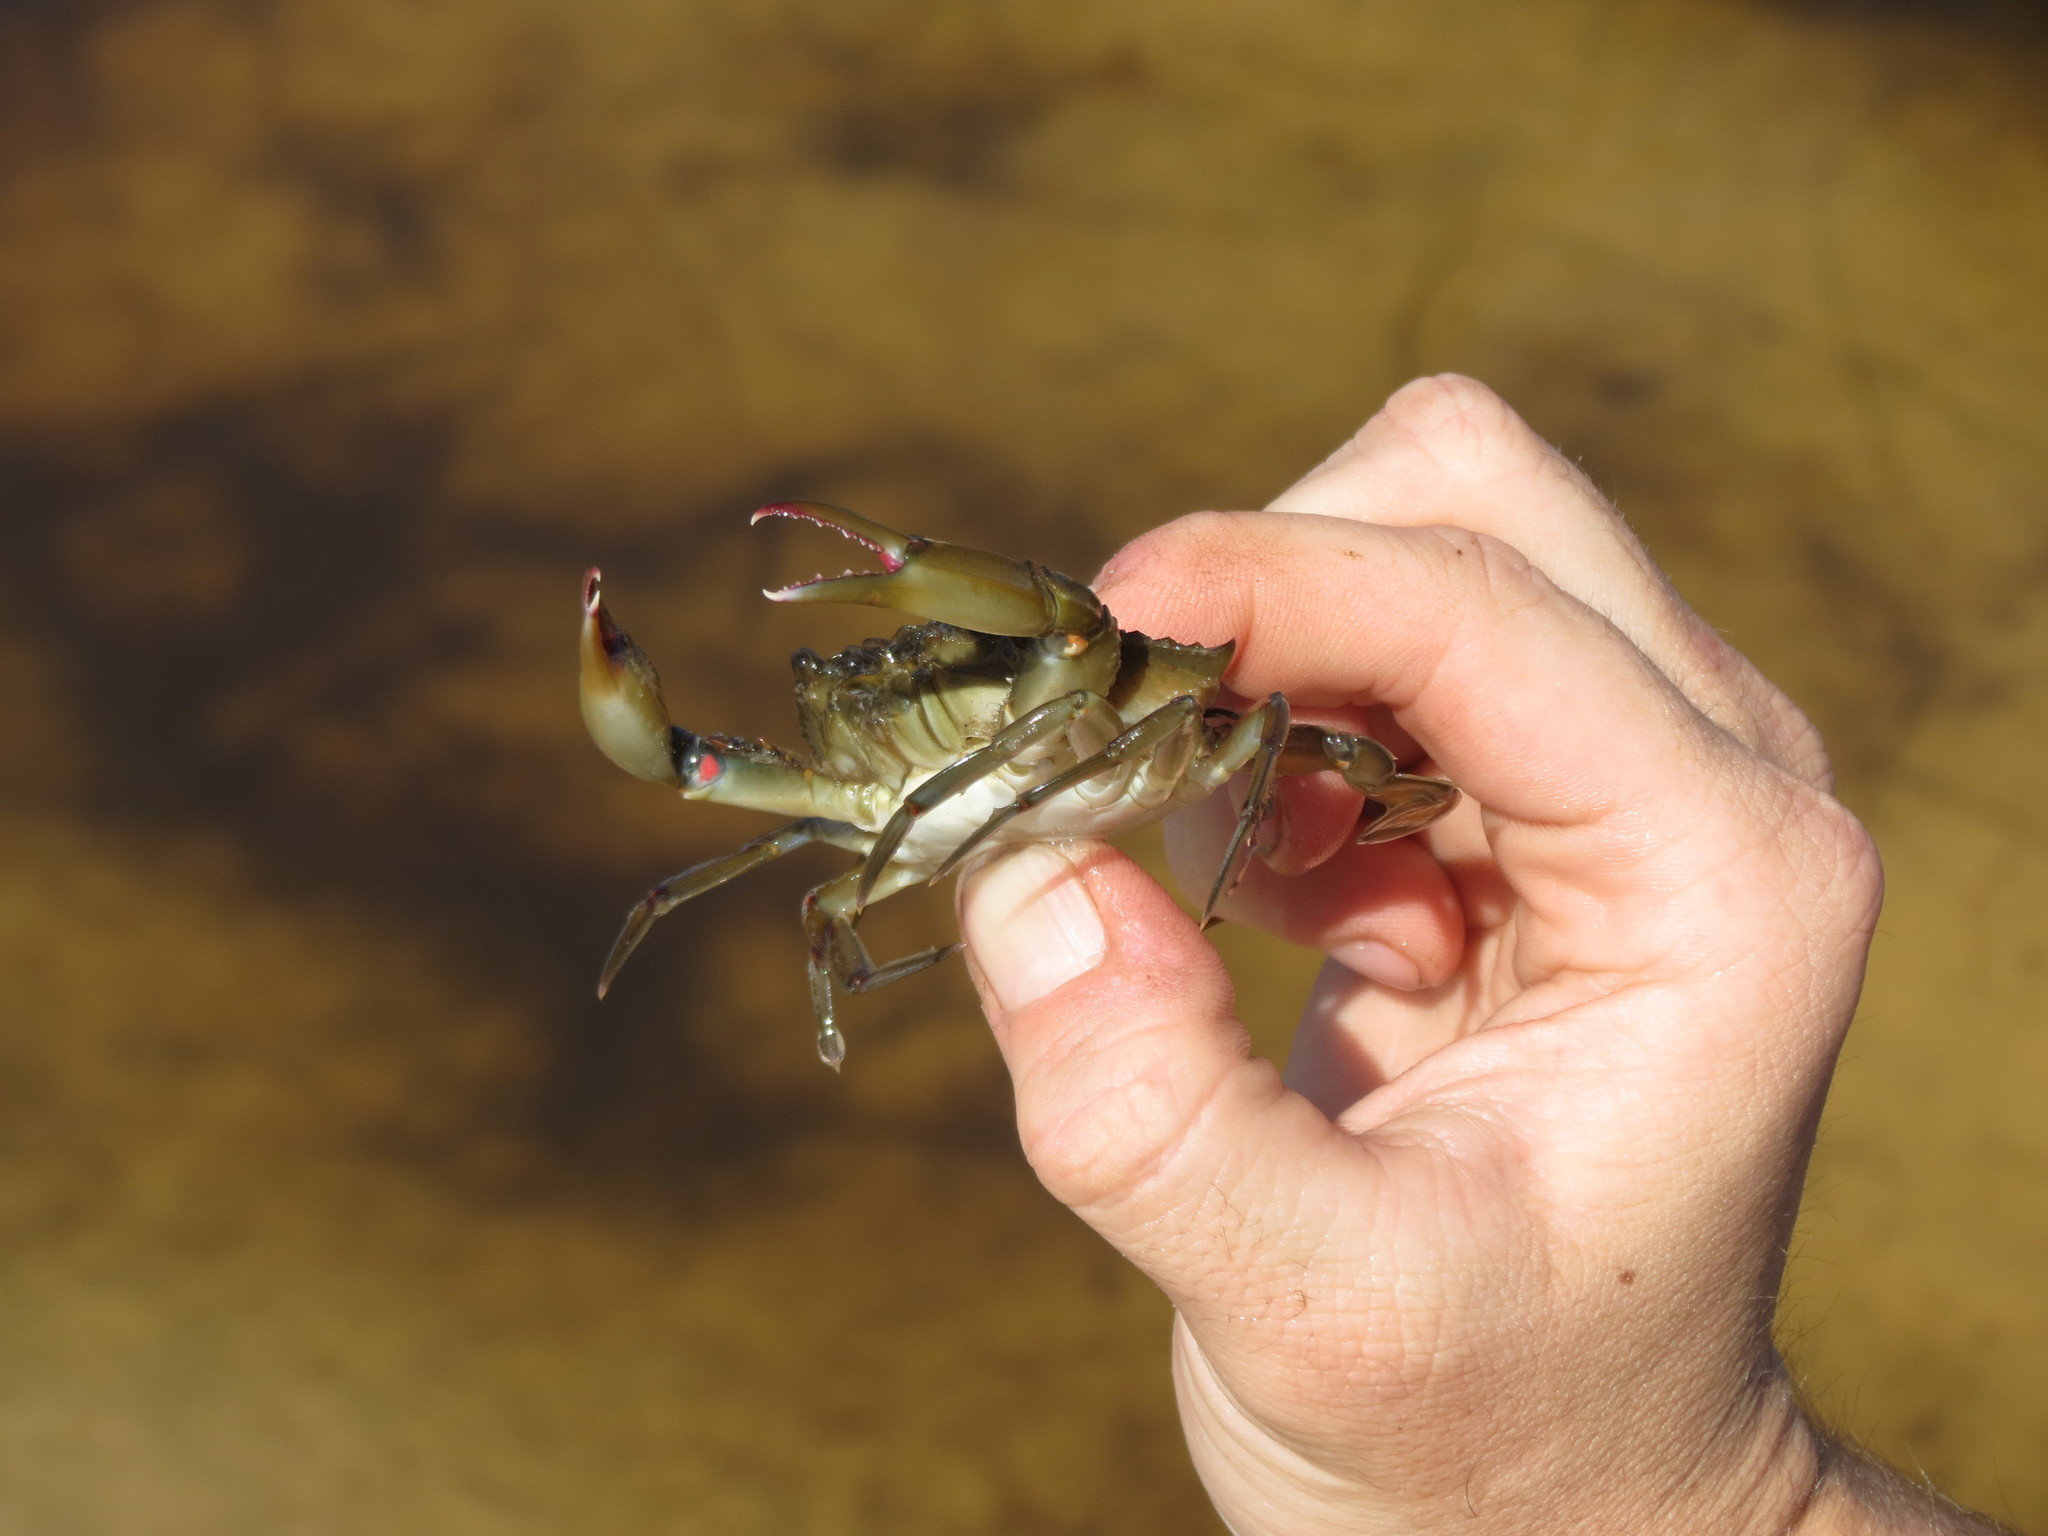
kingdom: Animalia
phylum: Arthropoda
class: Malacostraca
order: Decapoda
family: Portunidae
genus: Callinectes
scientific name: Callinectes sapidus
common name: Blue crab
